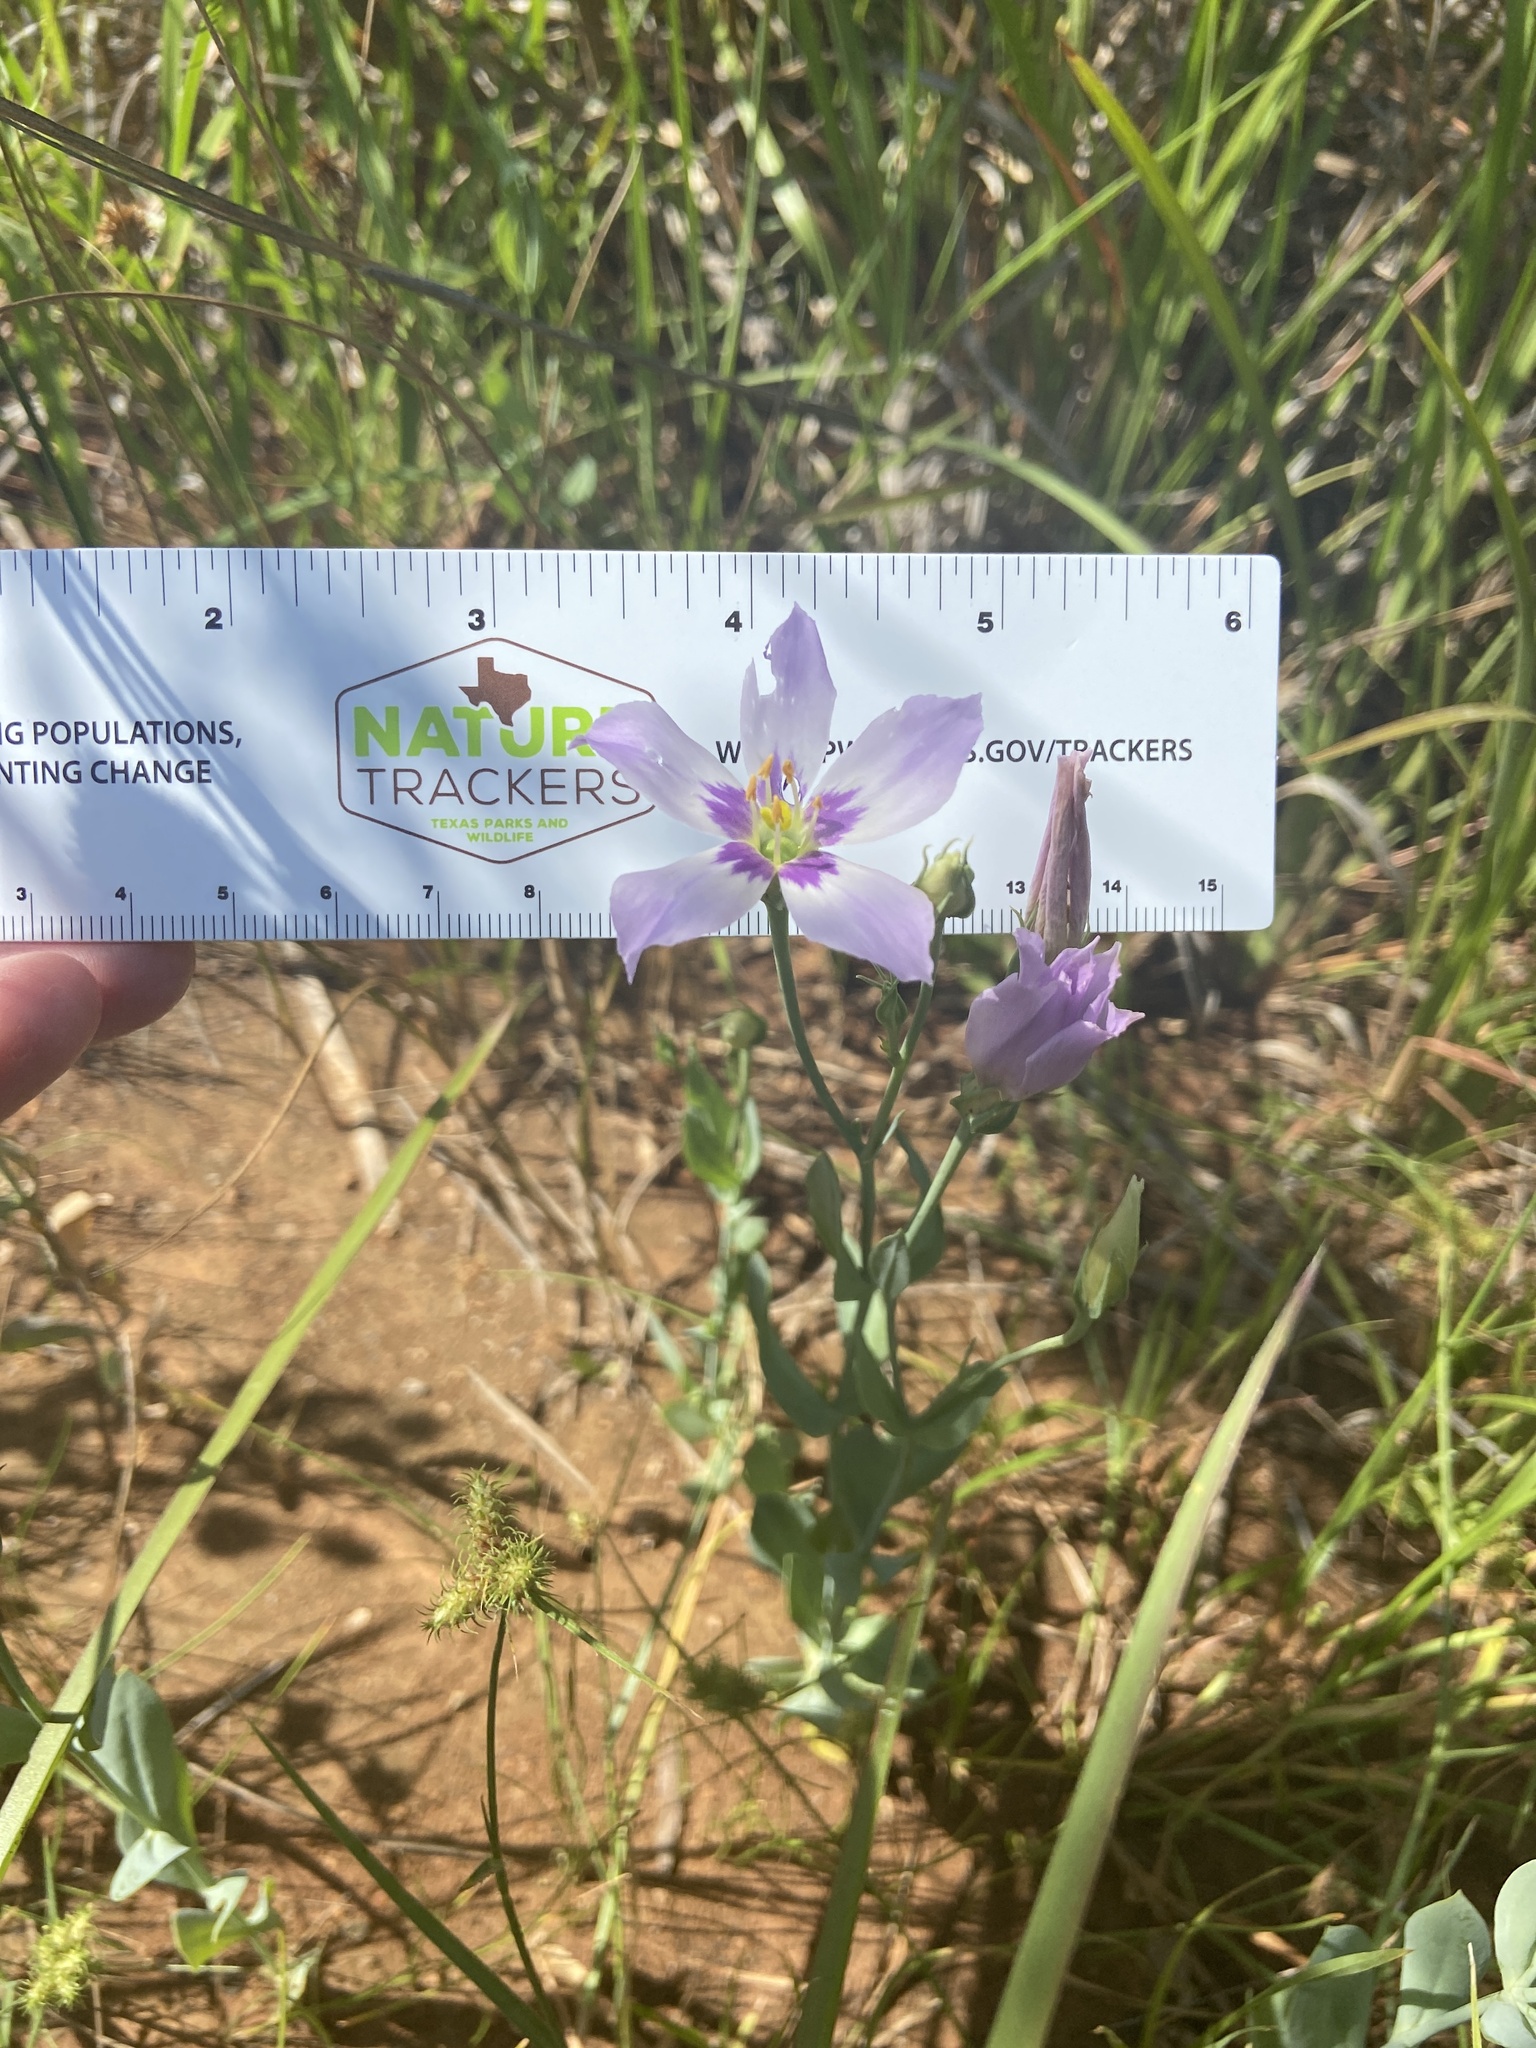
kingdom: Plantae
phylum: Tracheophyta
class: Magnoliopsida
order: Gentianales
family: Gentianaceae
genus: Eustoma
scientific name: Eustoma exaltatum
